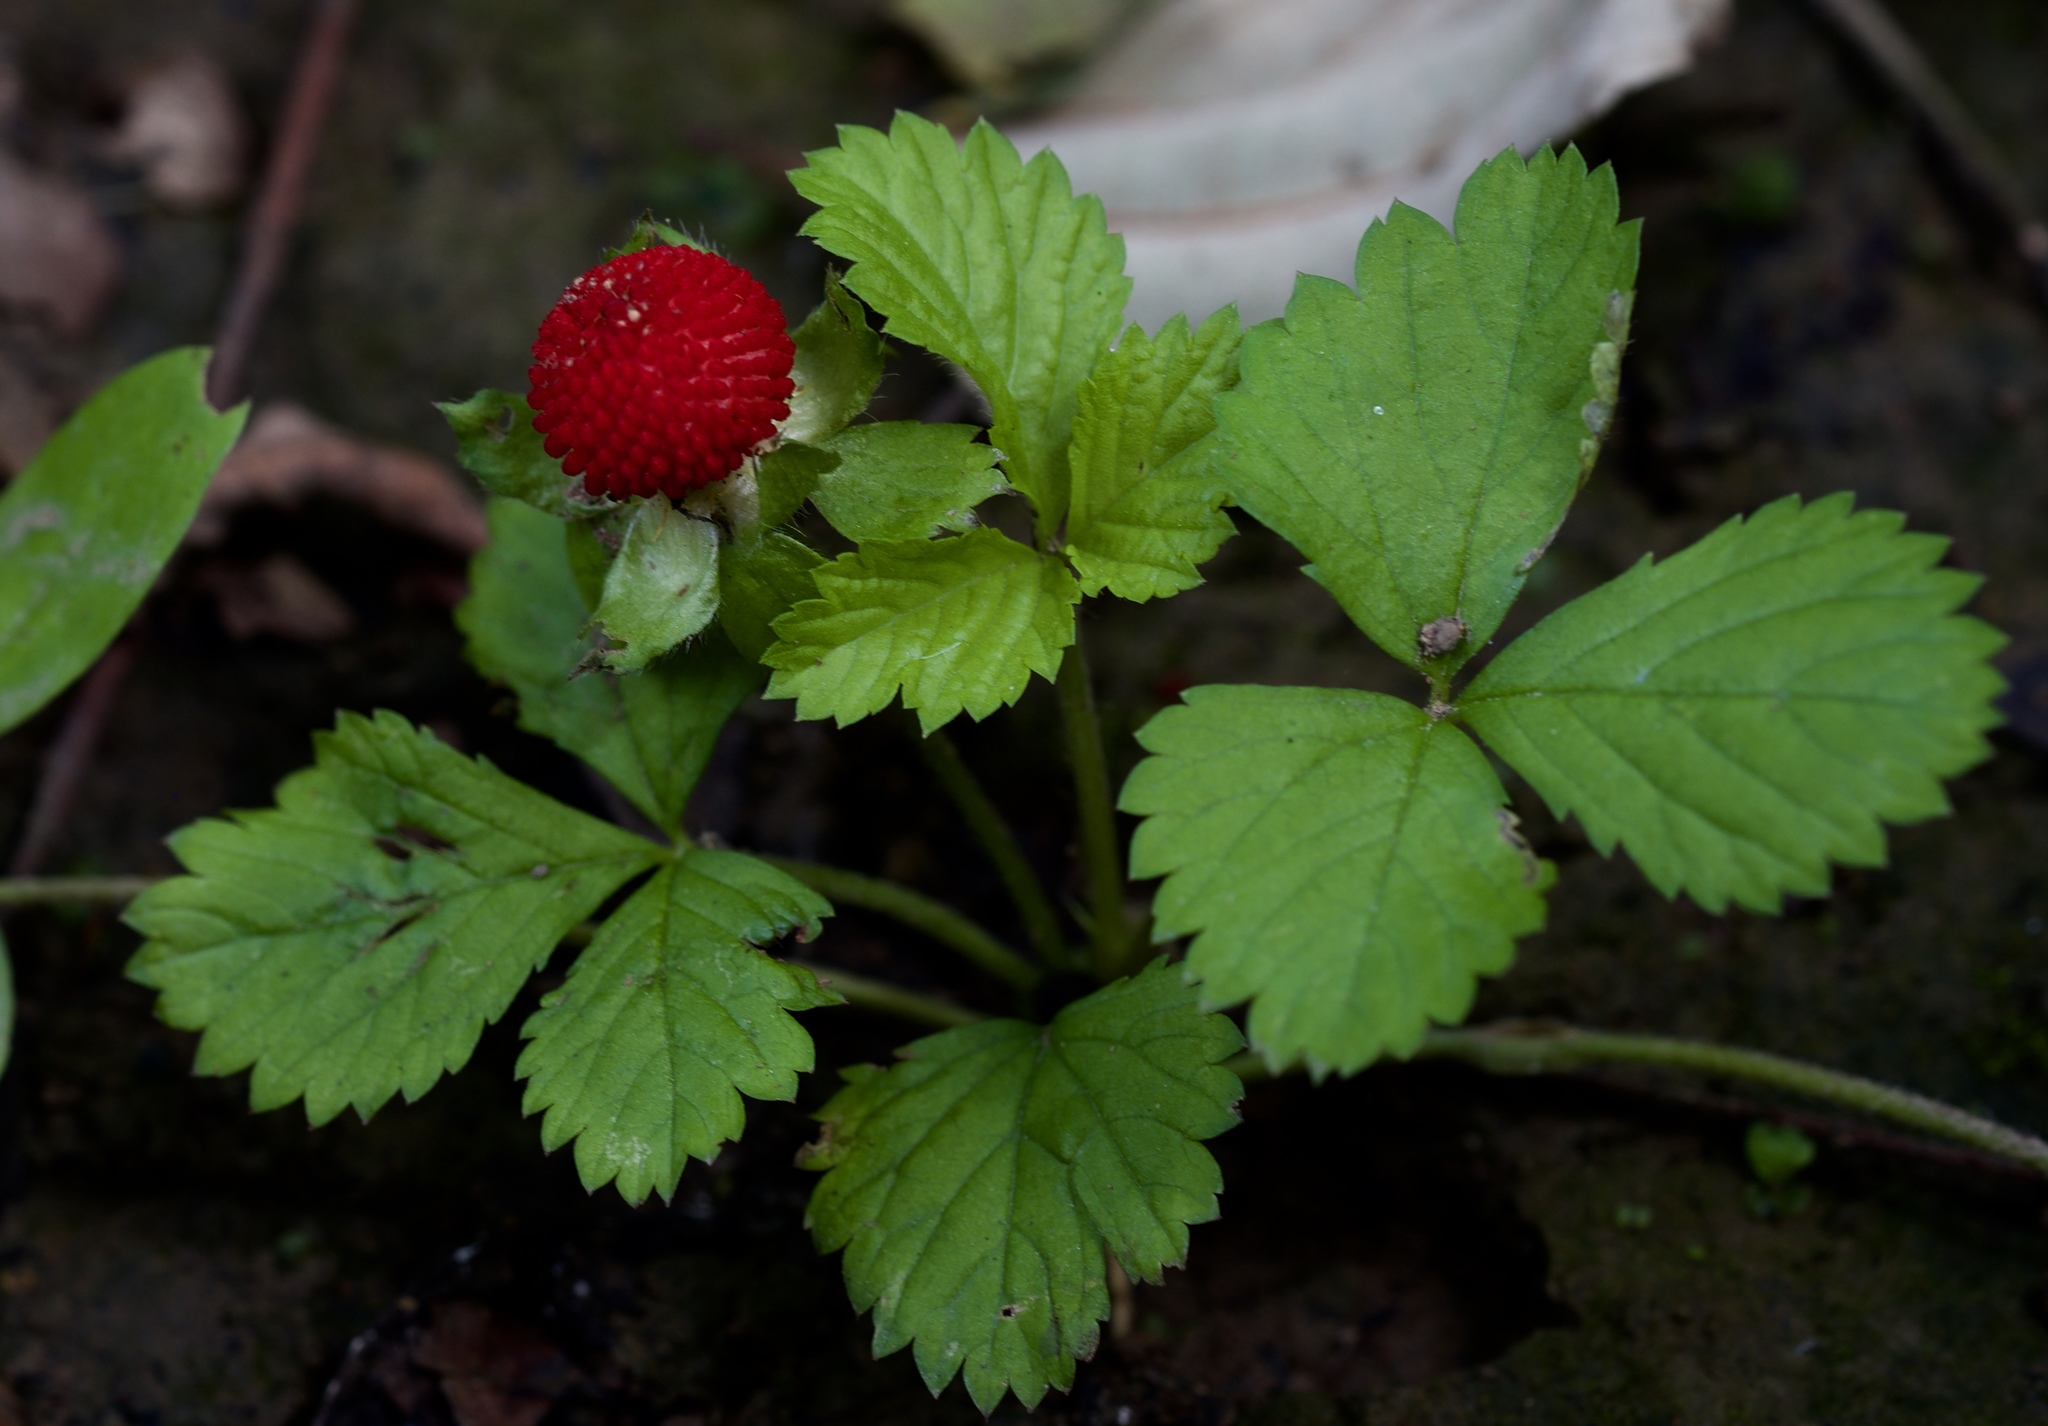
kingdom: Plantae
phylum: Tracheophyta
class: Magnoliopsida
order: Rosales
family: Rosaceae
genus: Potentilla
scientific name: Potentilla indica
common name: Yellow-flowered strawberry
